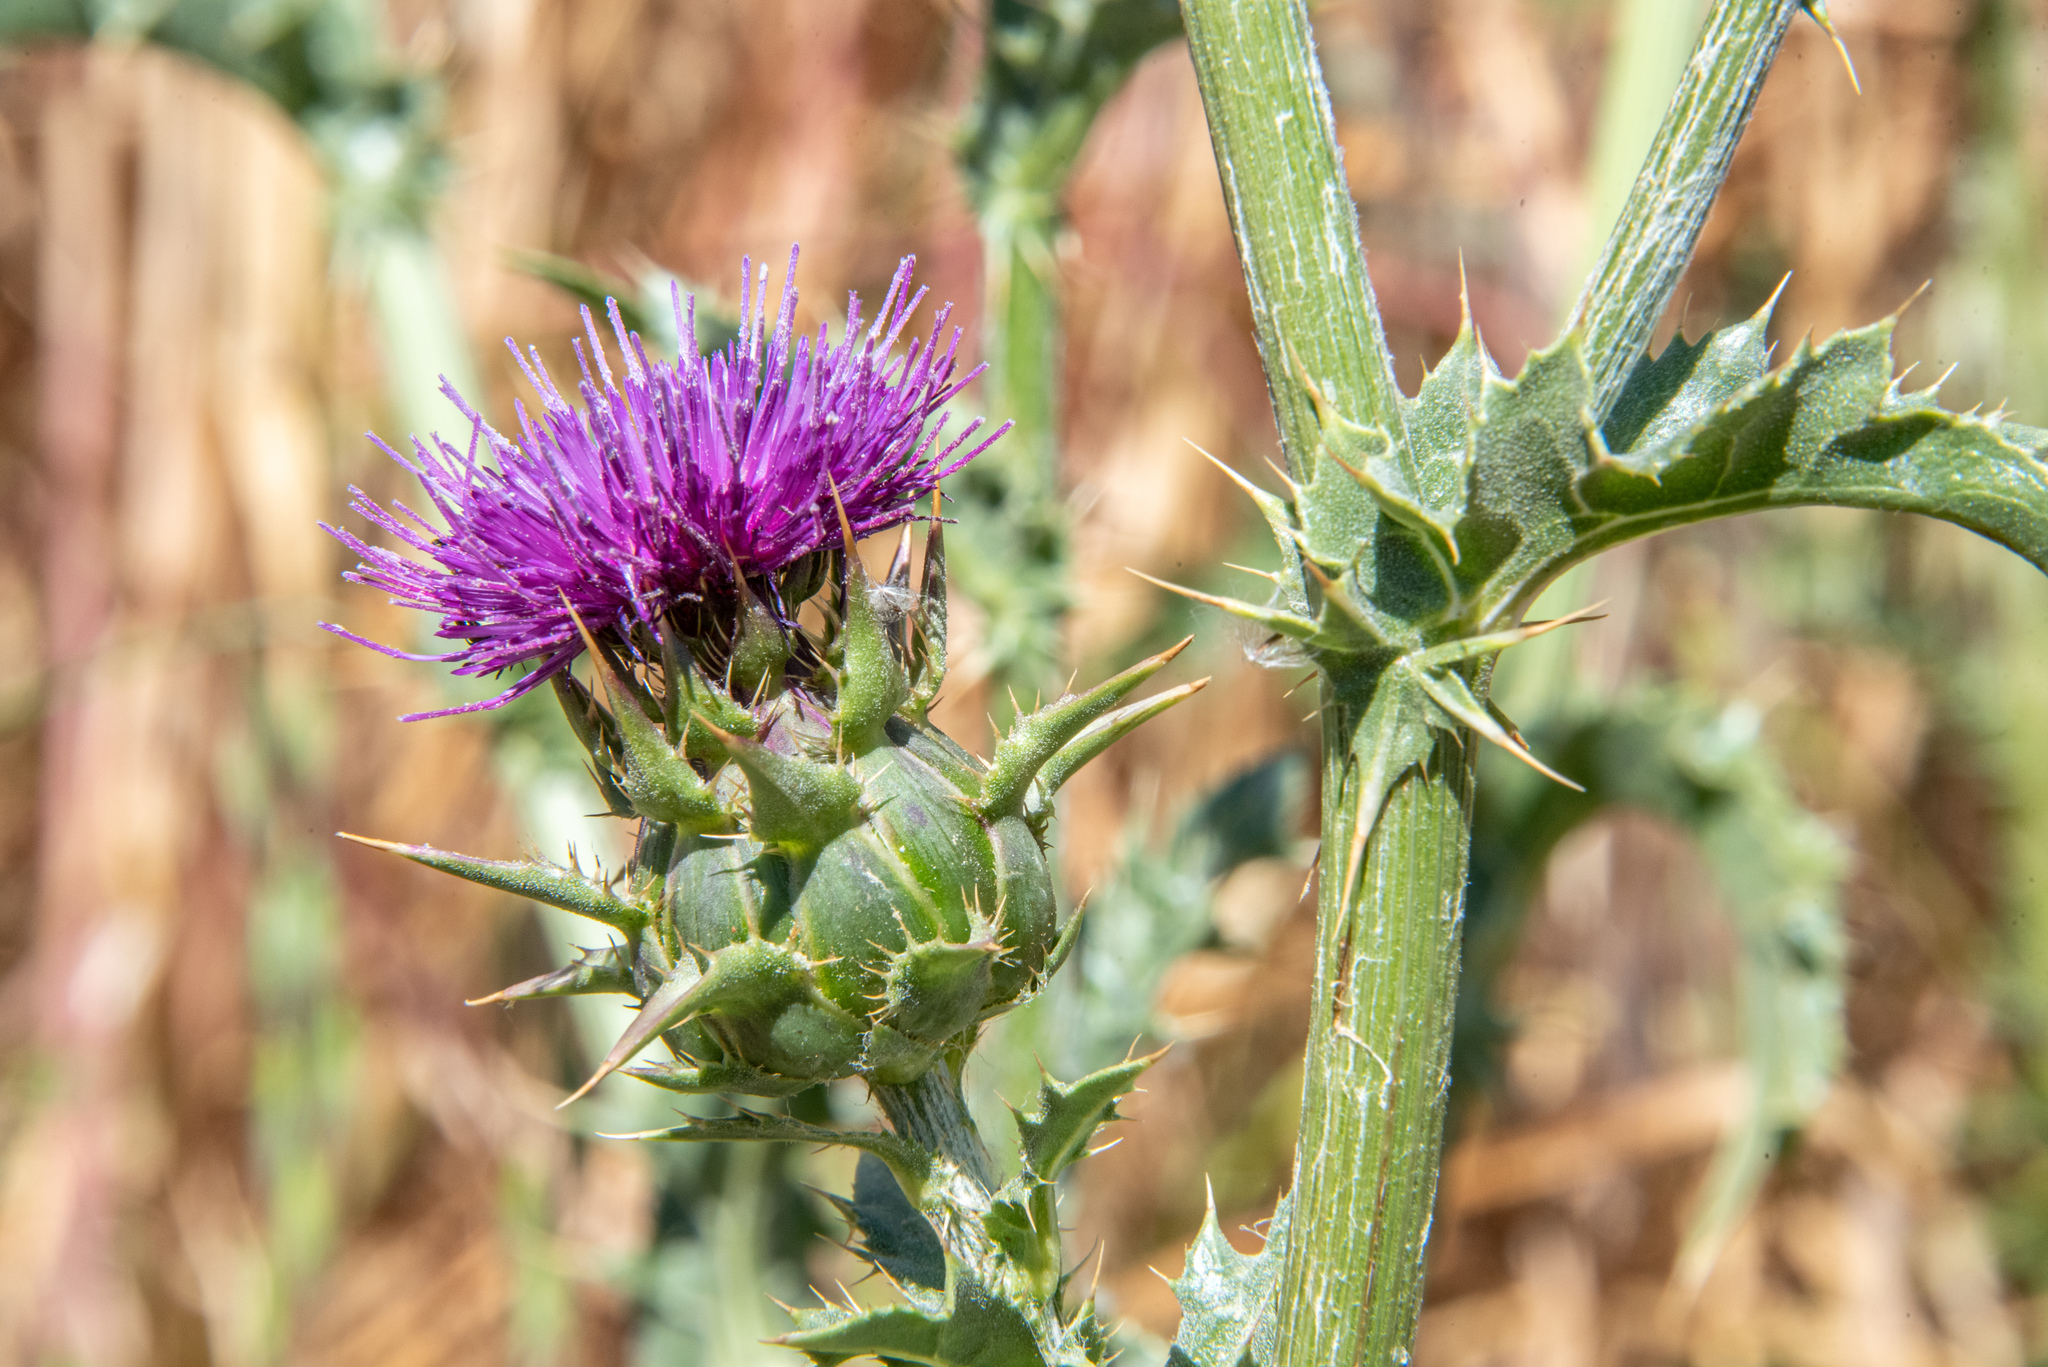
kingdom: Plantae
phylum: Tracheophyta
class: Magnoliopsida
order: Asterales
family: Asteraceae
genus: Silybum
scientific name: Silybum marianum
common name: Milk thistle
